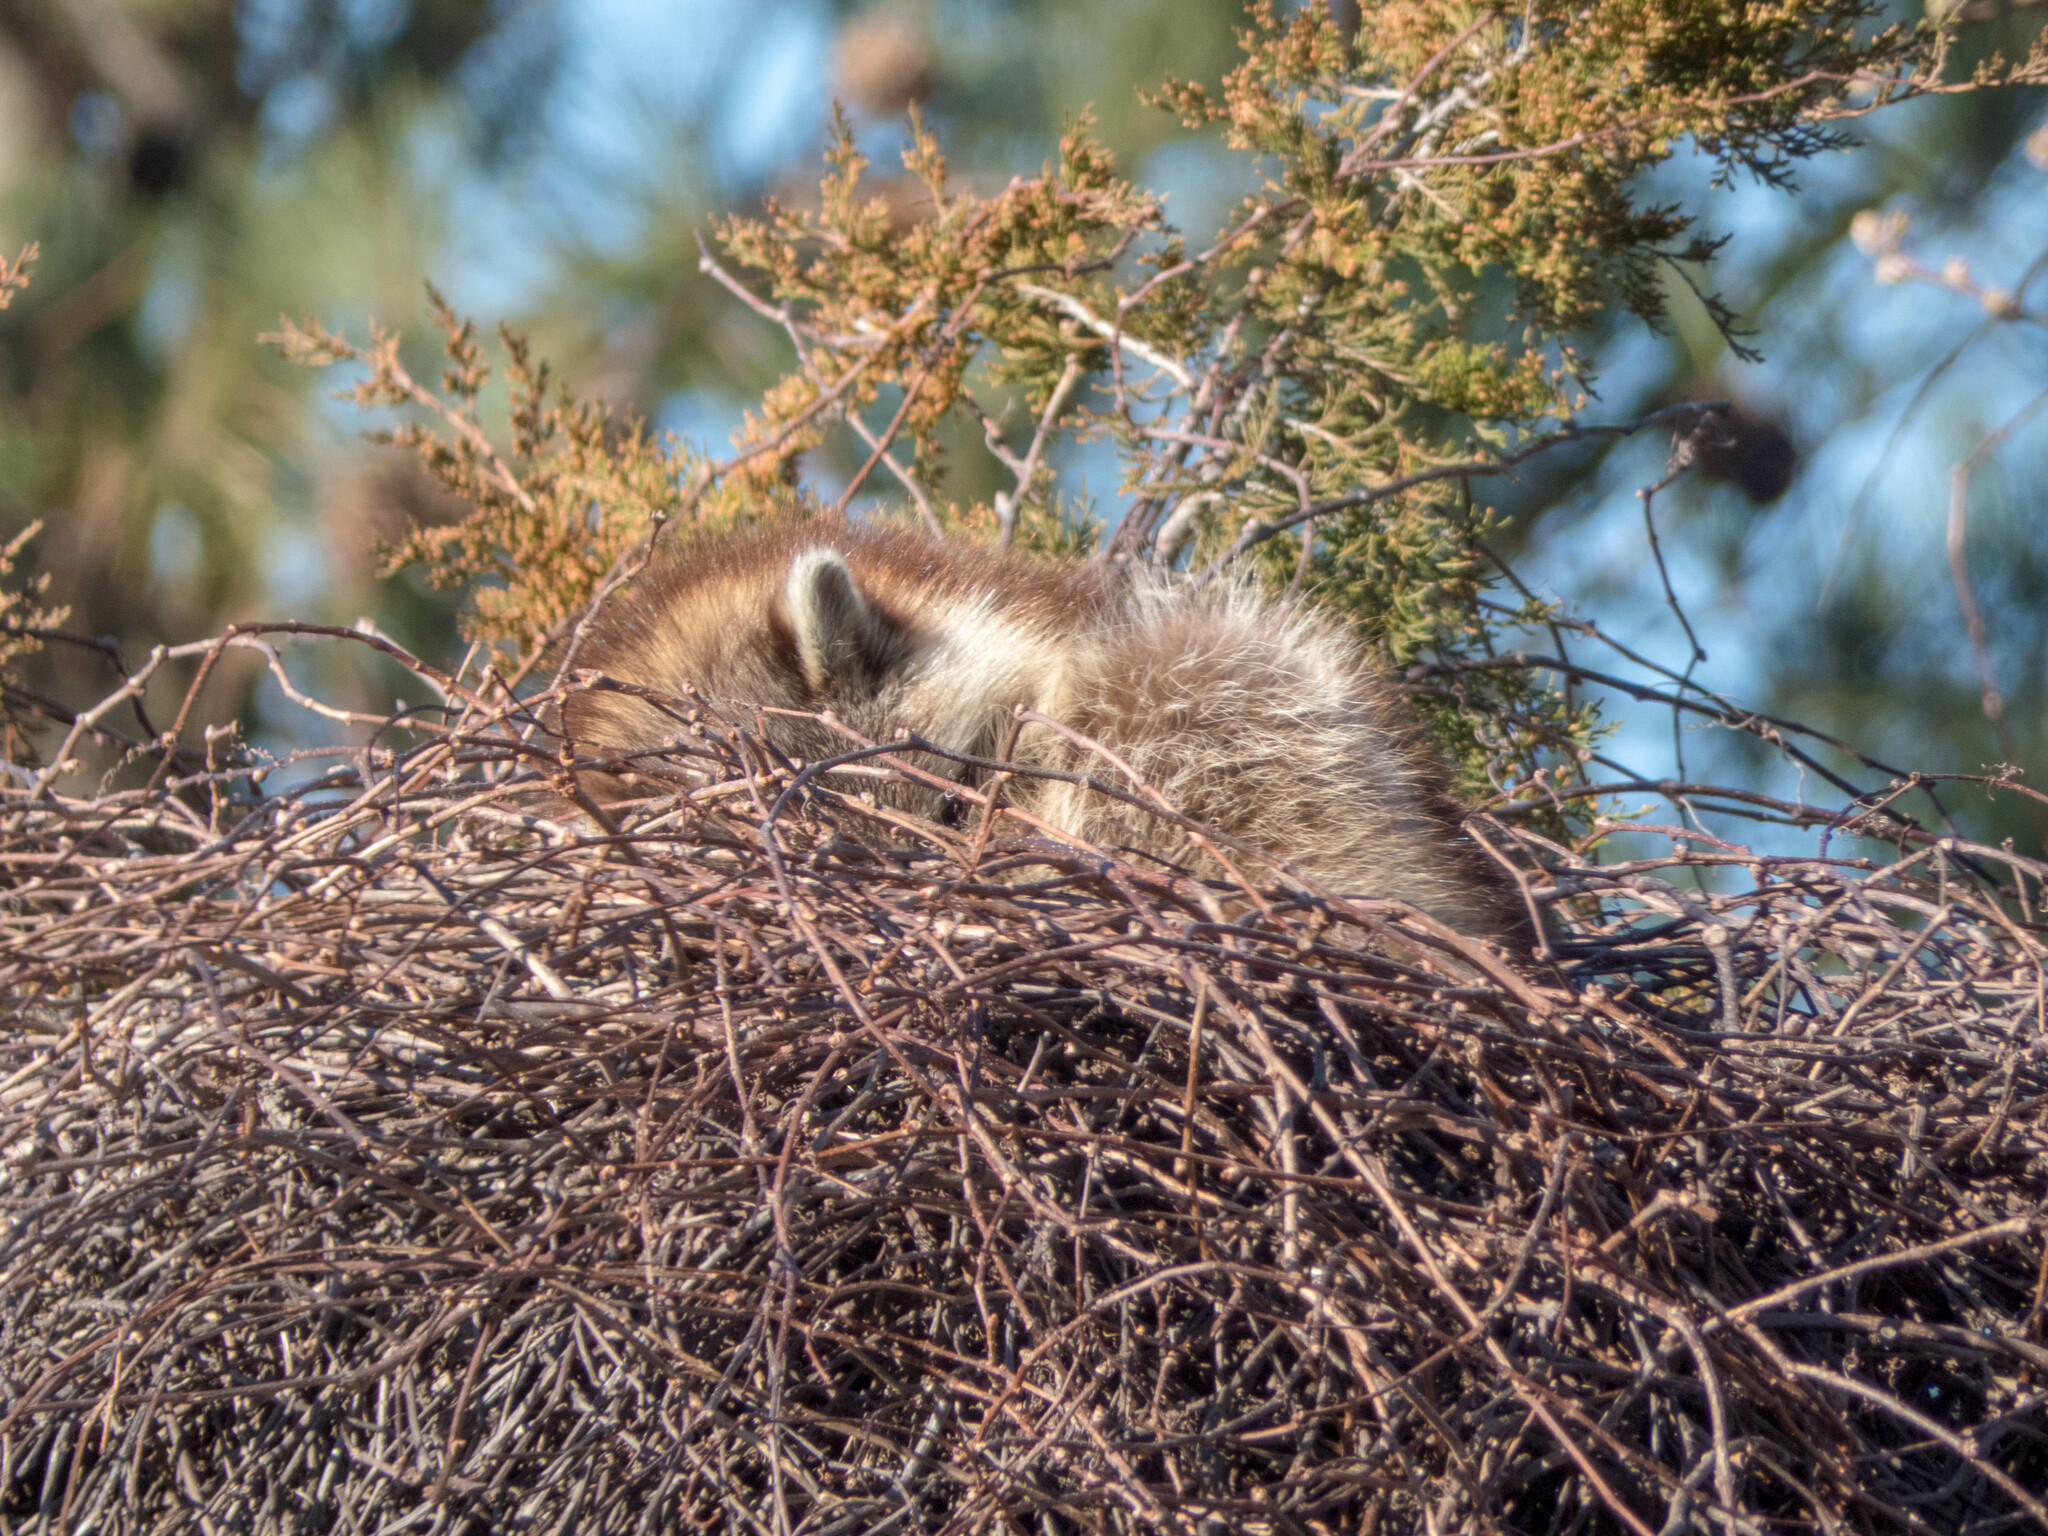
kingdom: Animalia
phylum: Chordata
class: Mammalia
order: Carnivora
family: Procyonidae
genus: Procyon
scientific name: Procyon lotor
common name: Raccoon
